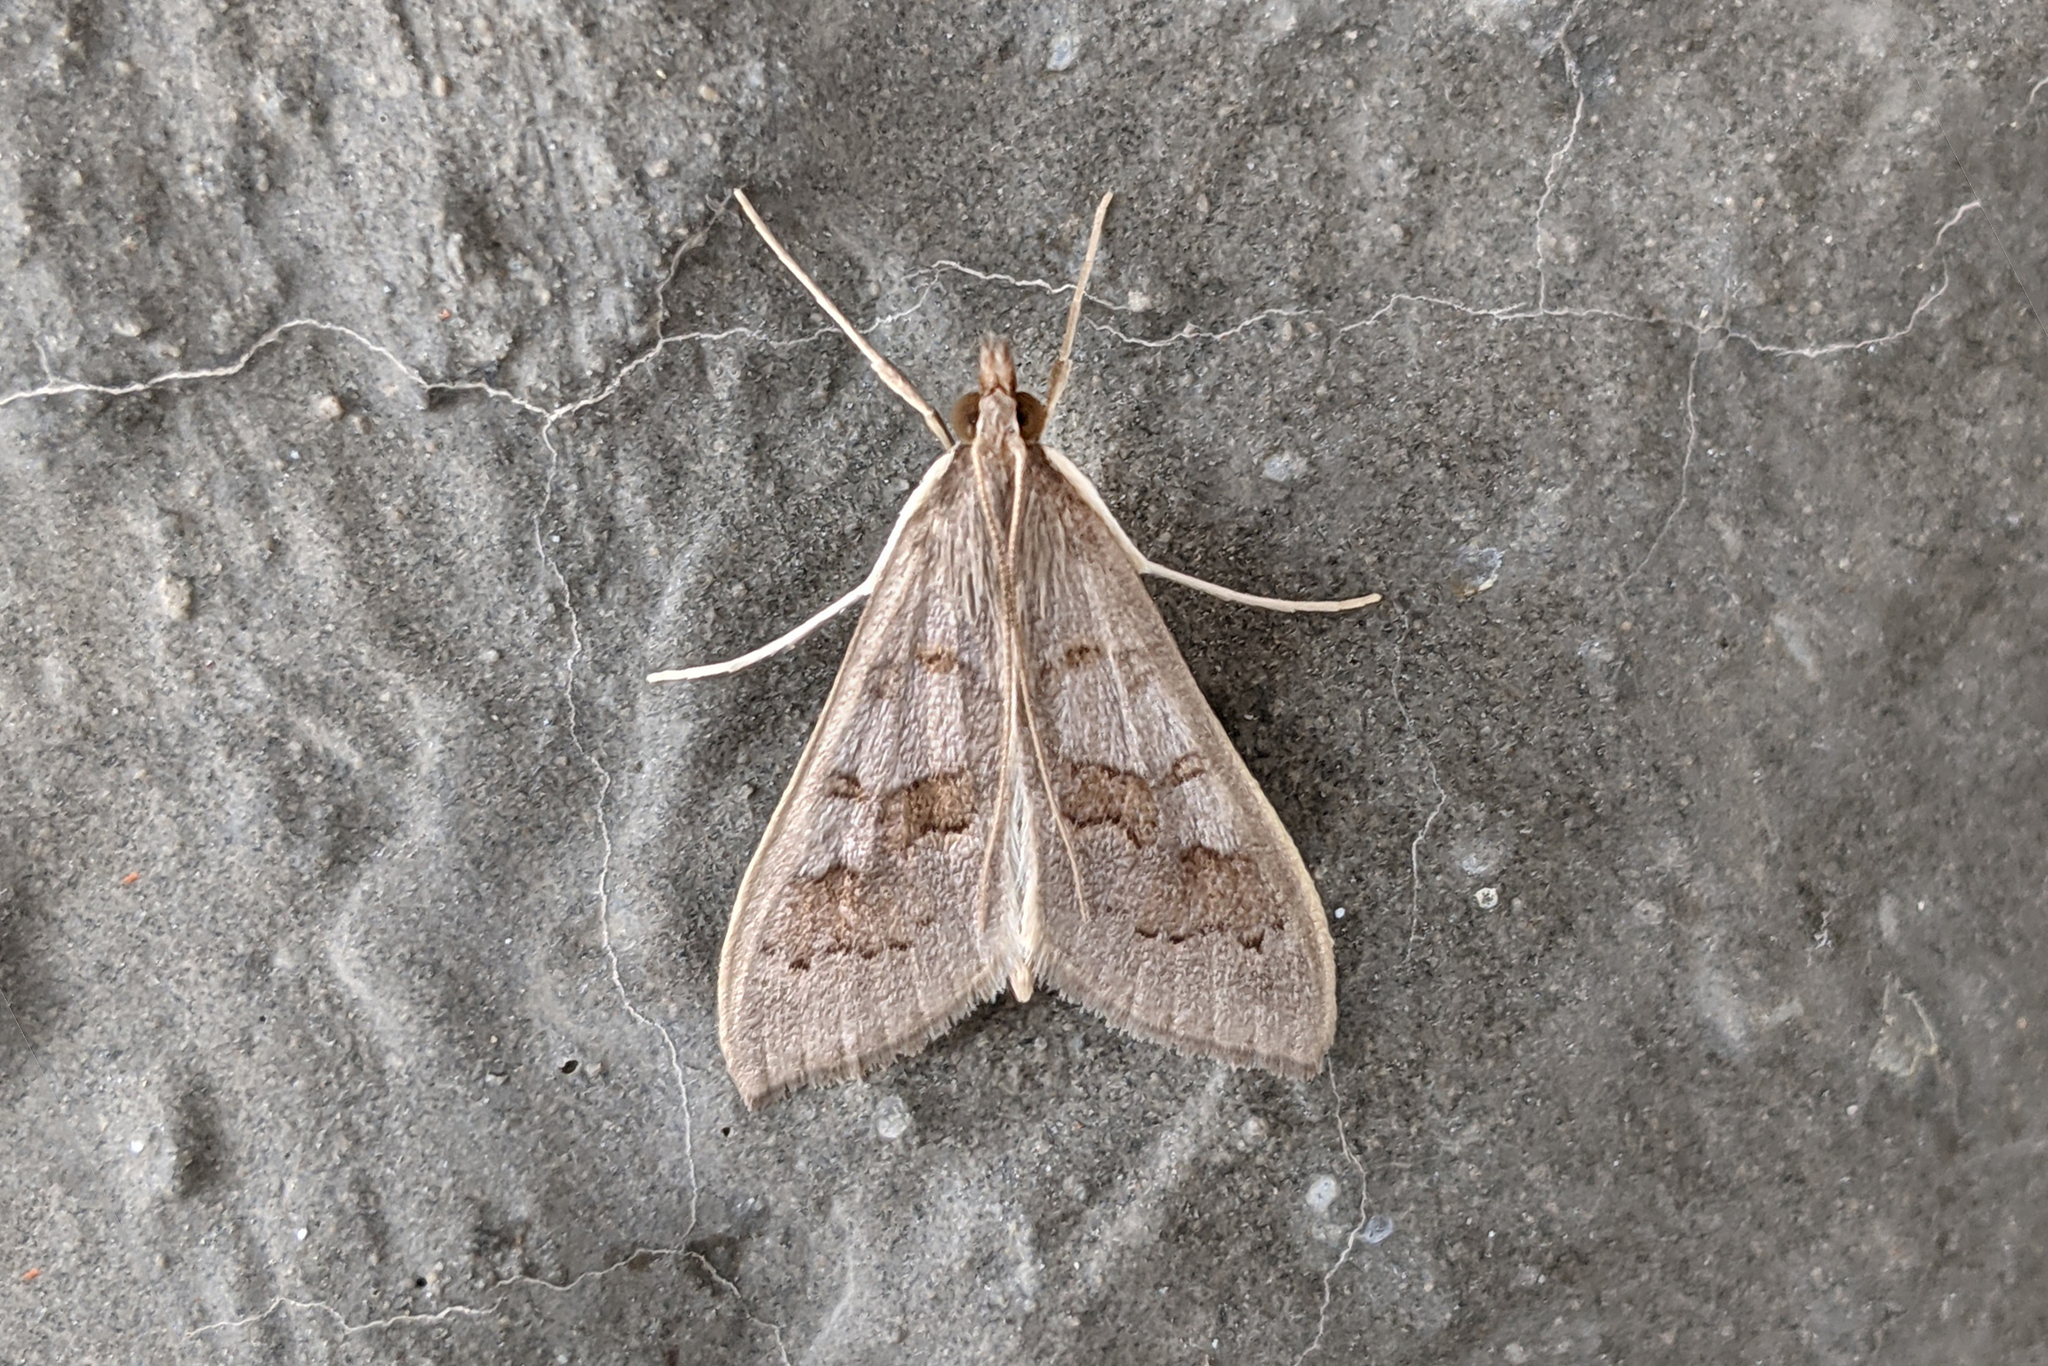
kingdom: Animalia
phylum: Arthropoda
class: Insecta
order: Lepidoptera
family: Crambidae
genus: Mecyna
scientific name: Mecyna asinalis
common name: Coastal pearl
